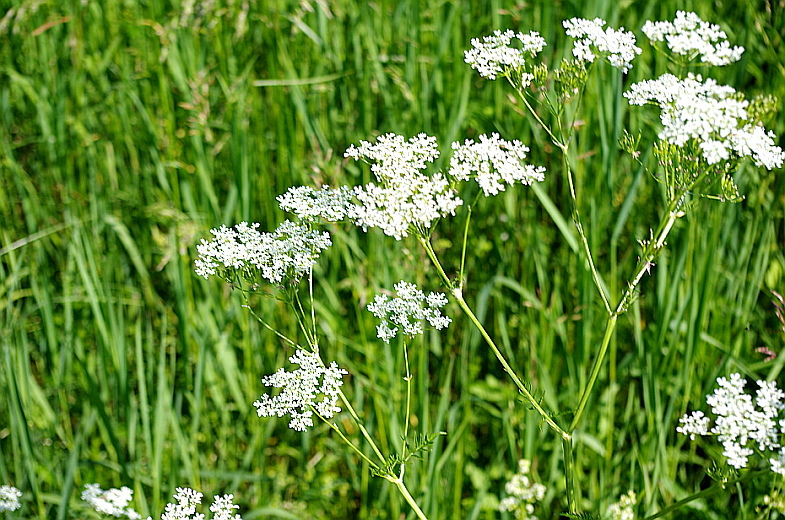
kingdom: Plantae
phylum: Tracheophyta
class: Magnoliopsida
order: Apiales
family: Apiaceae
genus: Anthriscus
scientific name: Anthriscus sylvestris
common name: Cow parsley
